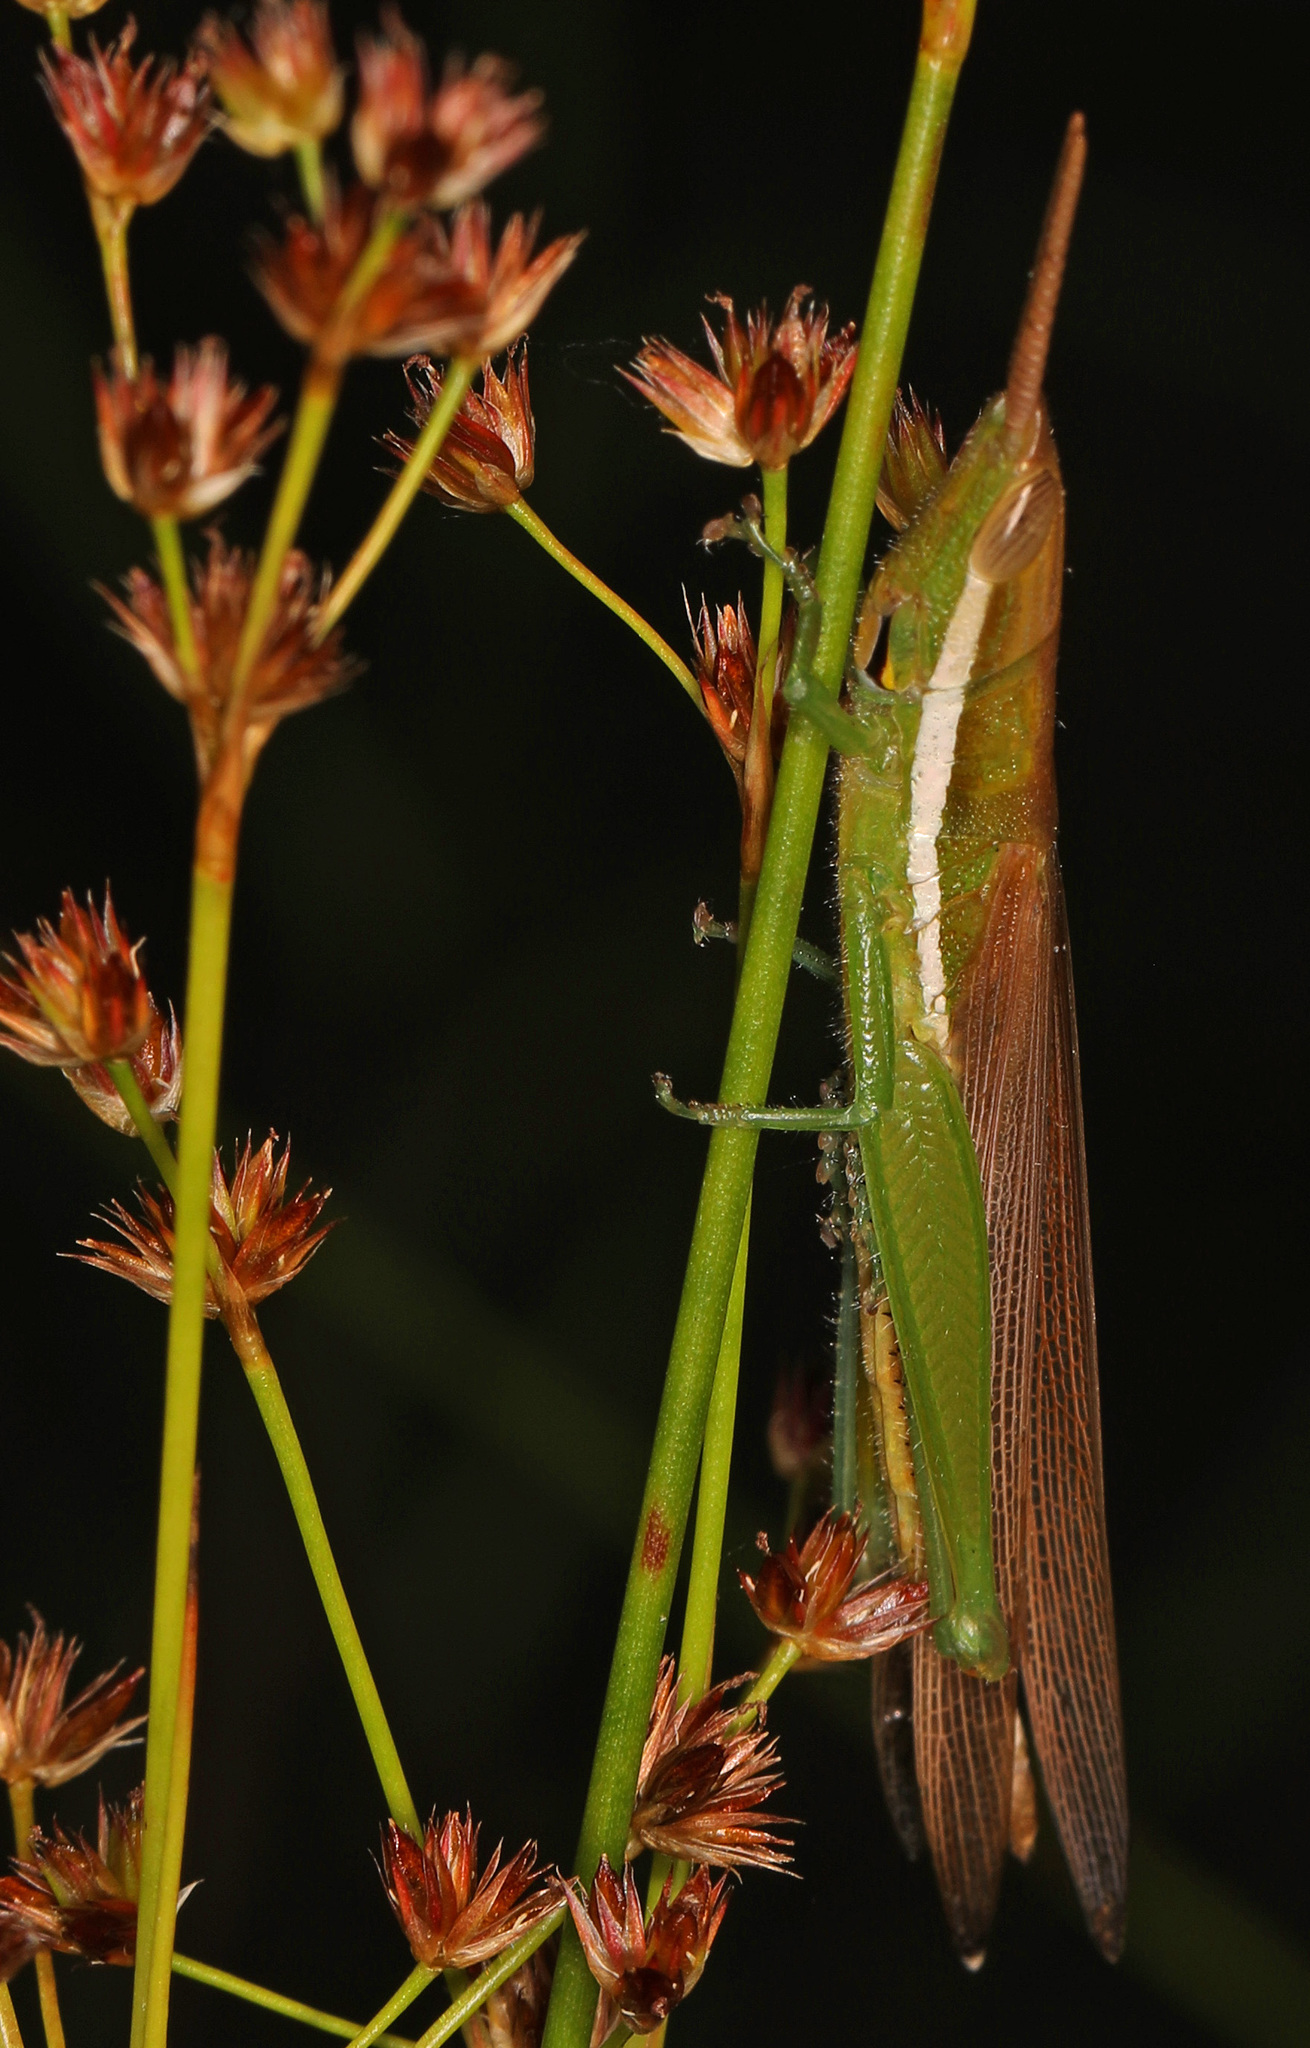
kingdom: Animalia
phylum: Arthropoda
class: Insecta
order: Orthoptera
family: Acrididae
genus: Leptysma
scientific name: Leptysma marginicollis
